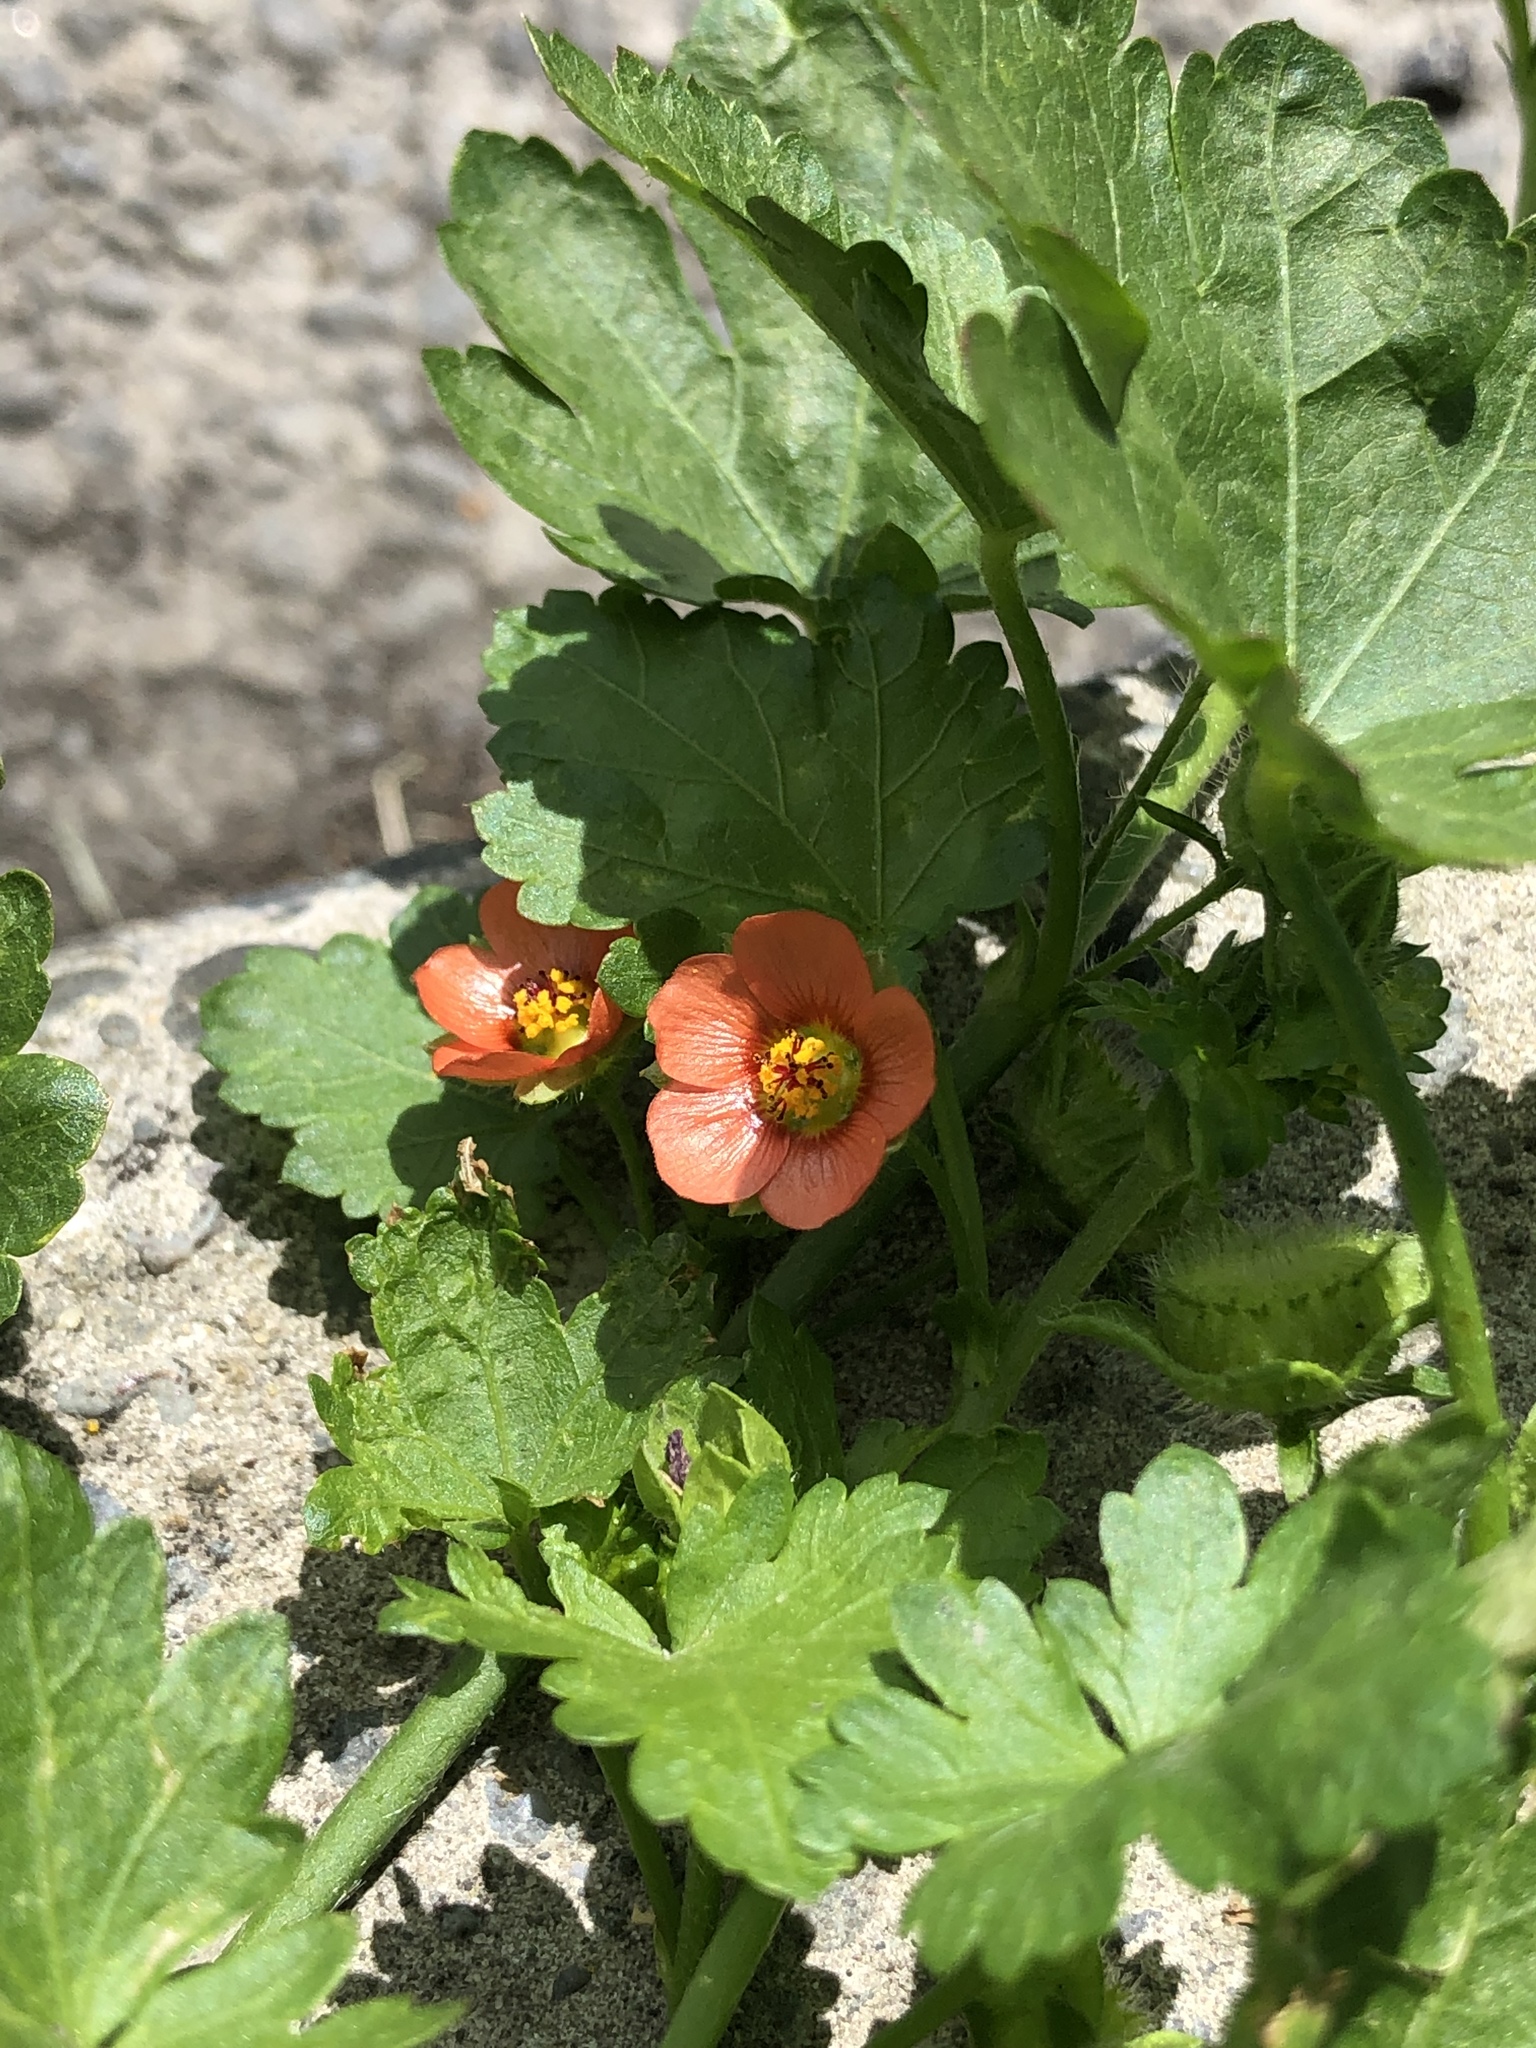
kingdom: Plantae
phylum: Tracheophyta
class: Magnoliopsida
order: Malvales
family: Malvaceae
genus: Modiola
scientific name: Modiola caroliniana
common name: Carolina bristlemallow
